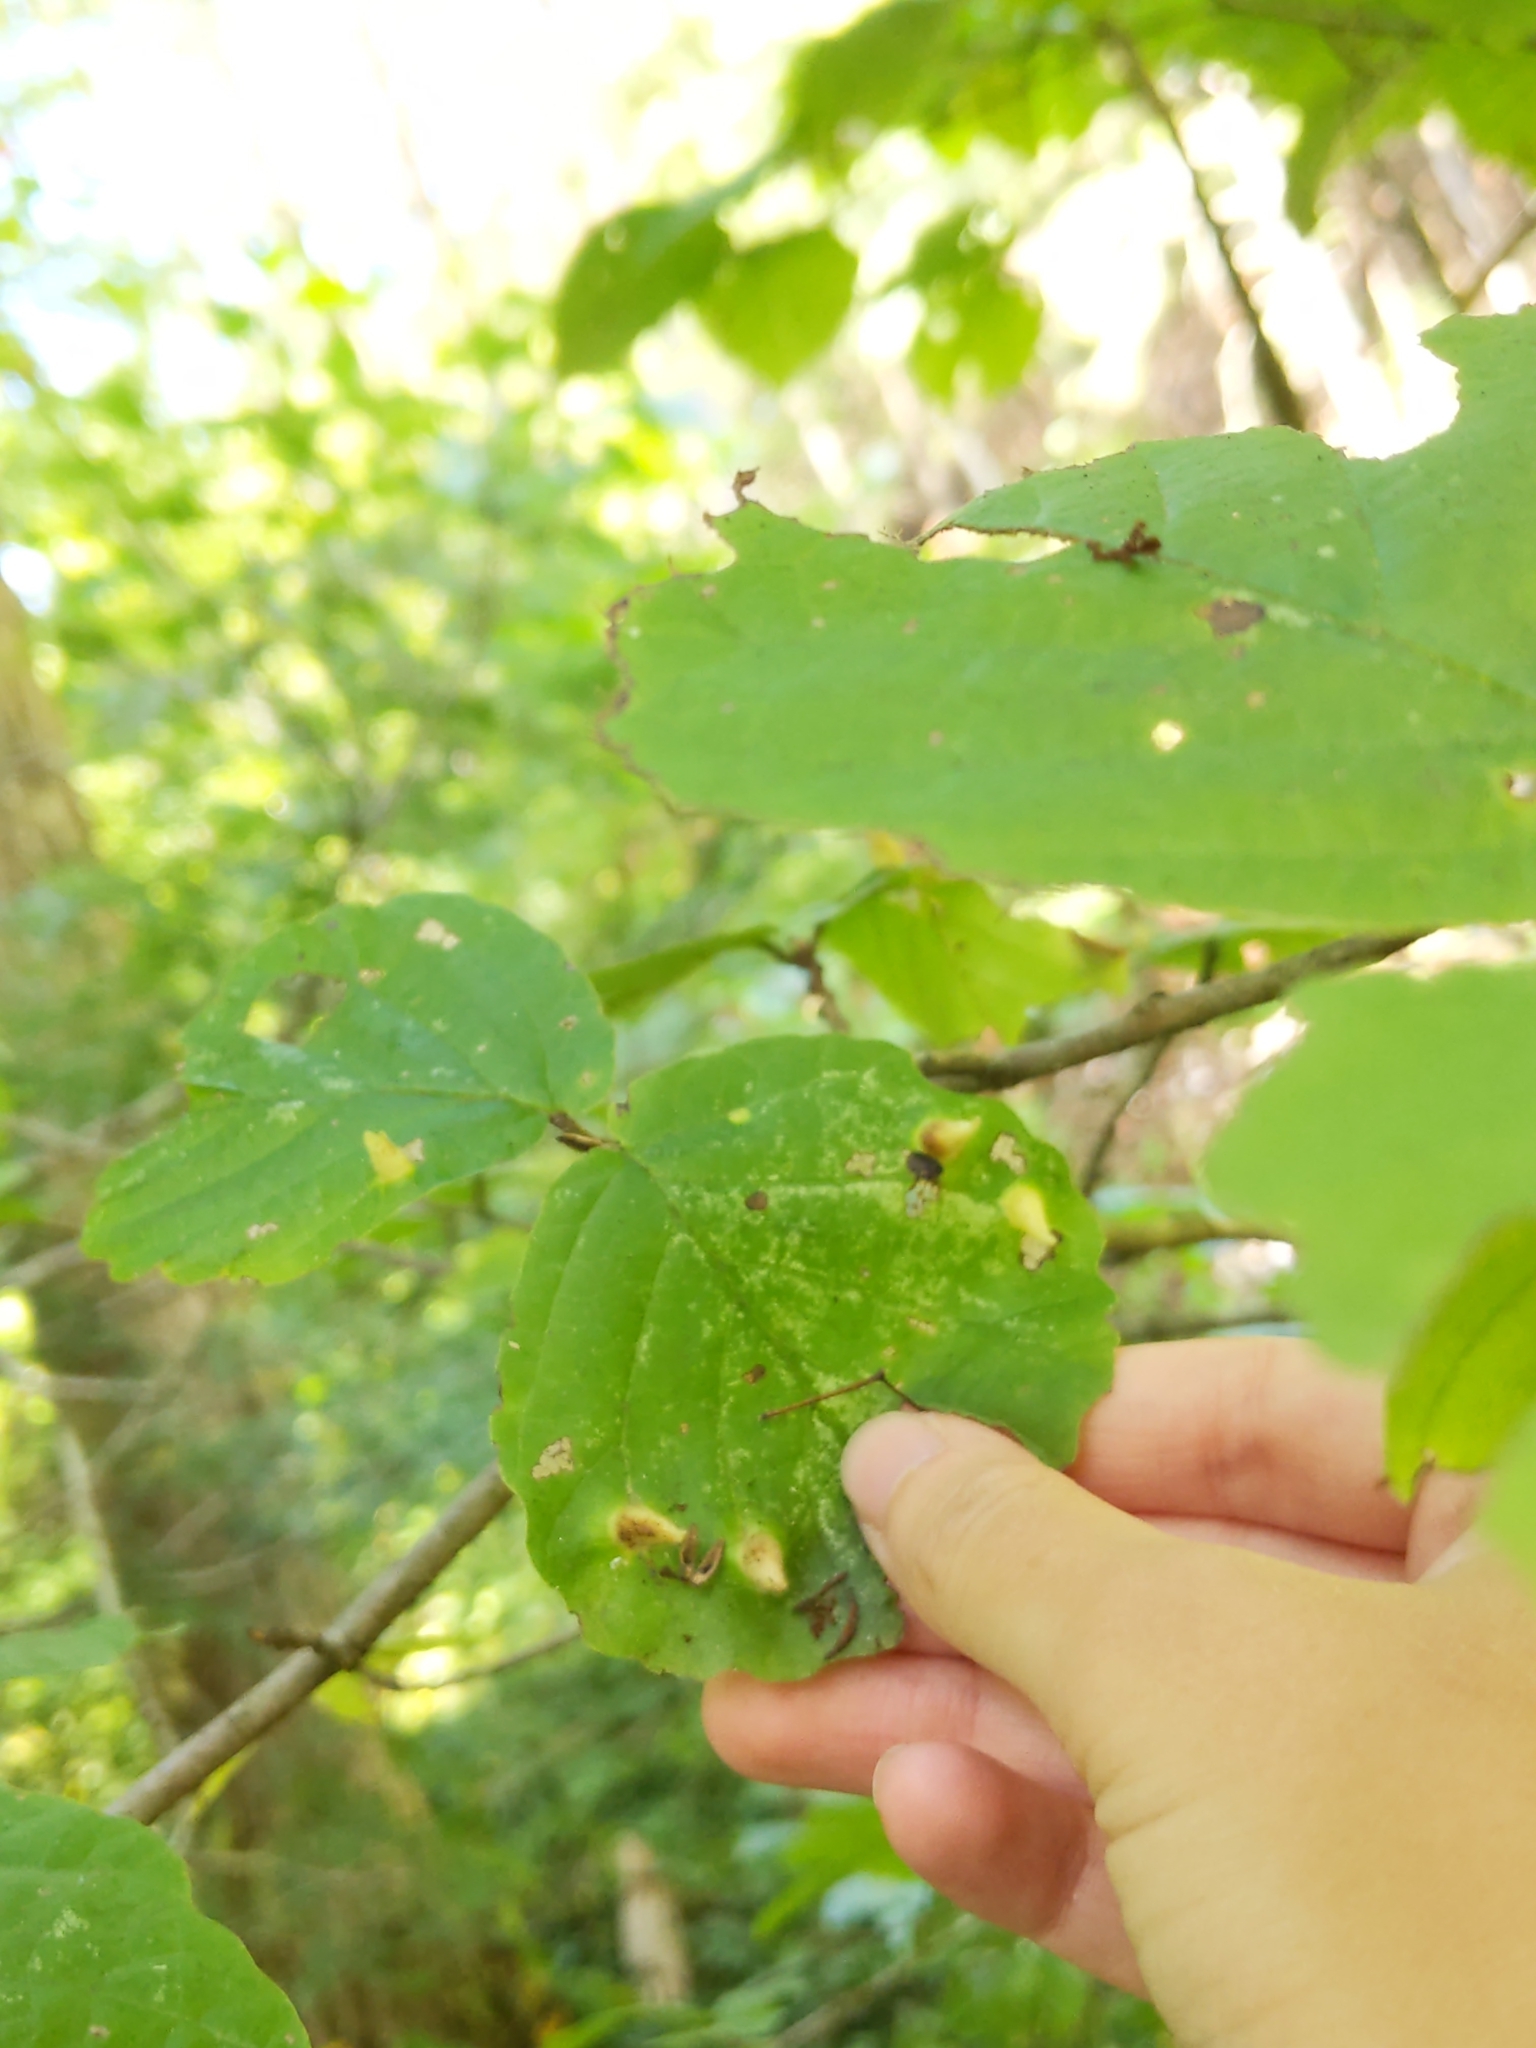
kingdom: Animalia
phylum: Arthropoda
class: Insecta
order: Hemiptera
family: Aphididae
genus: Hormaphis
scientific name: Hormaphis hamamelidis
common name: Witch-hazel cone gall aphid
